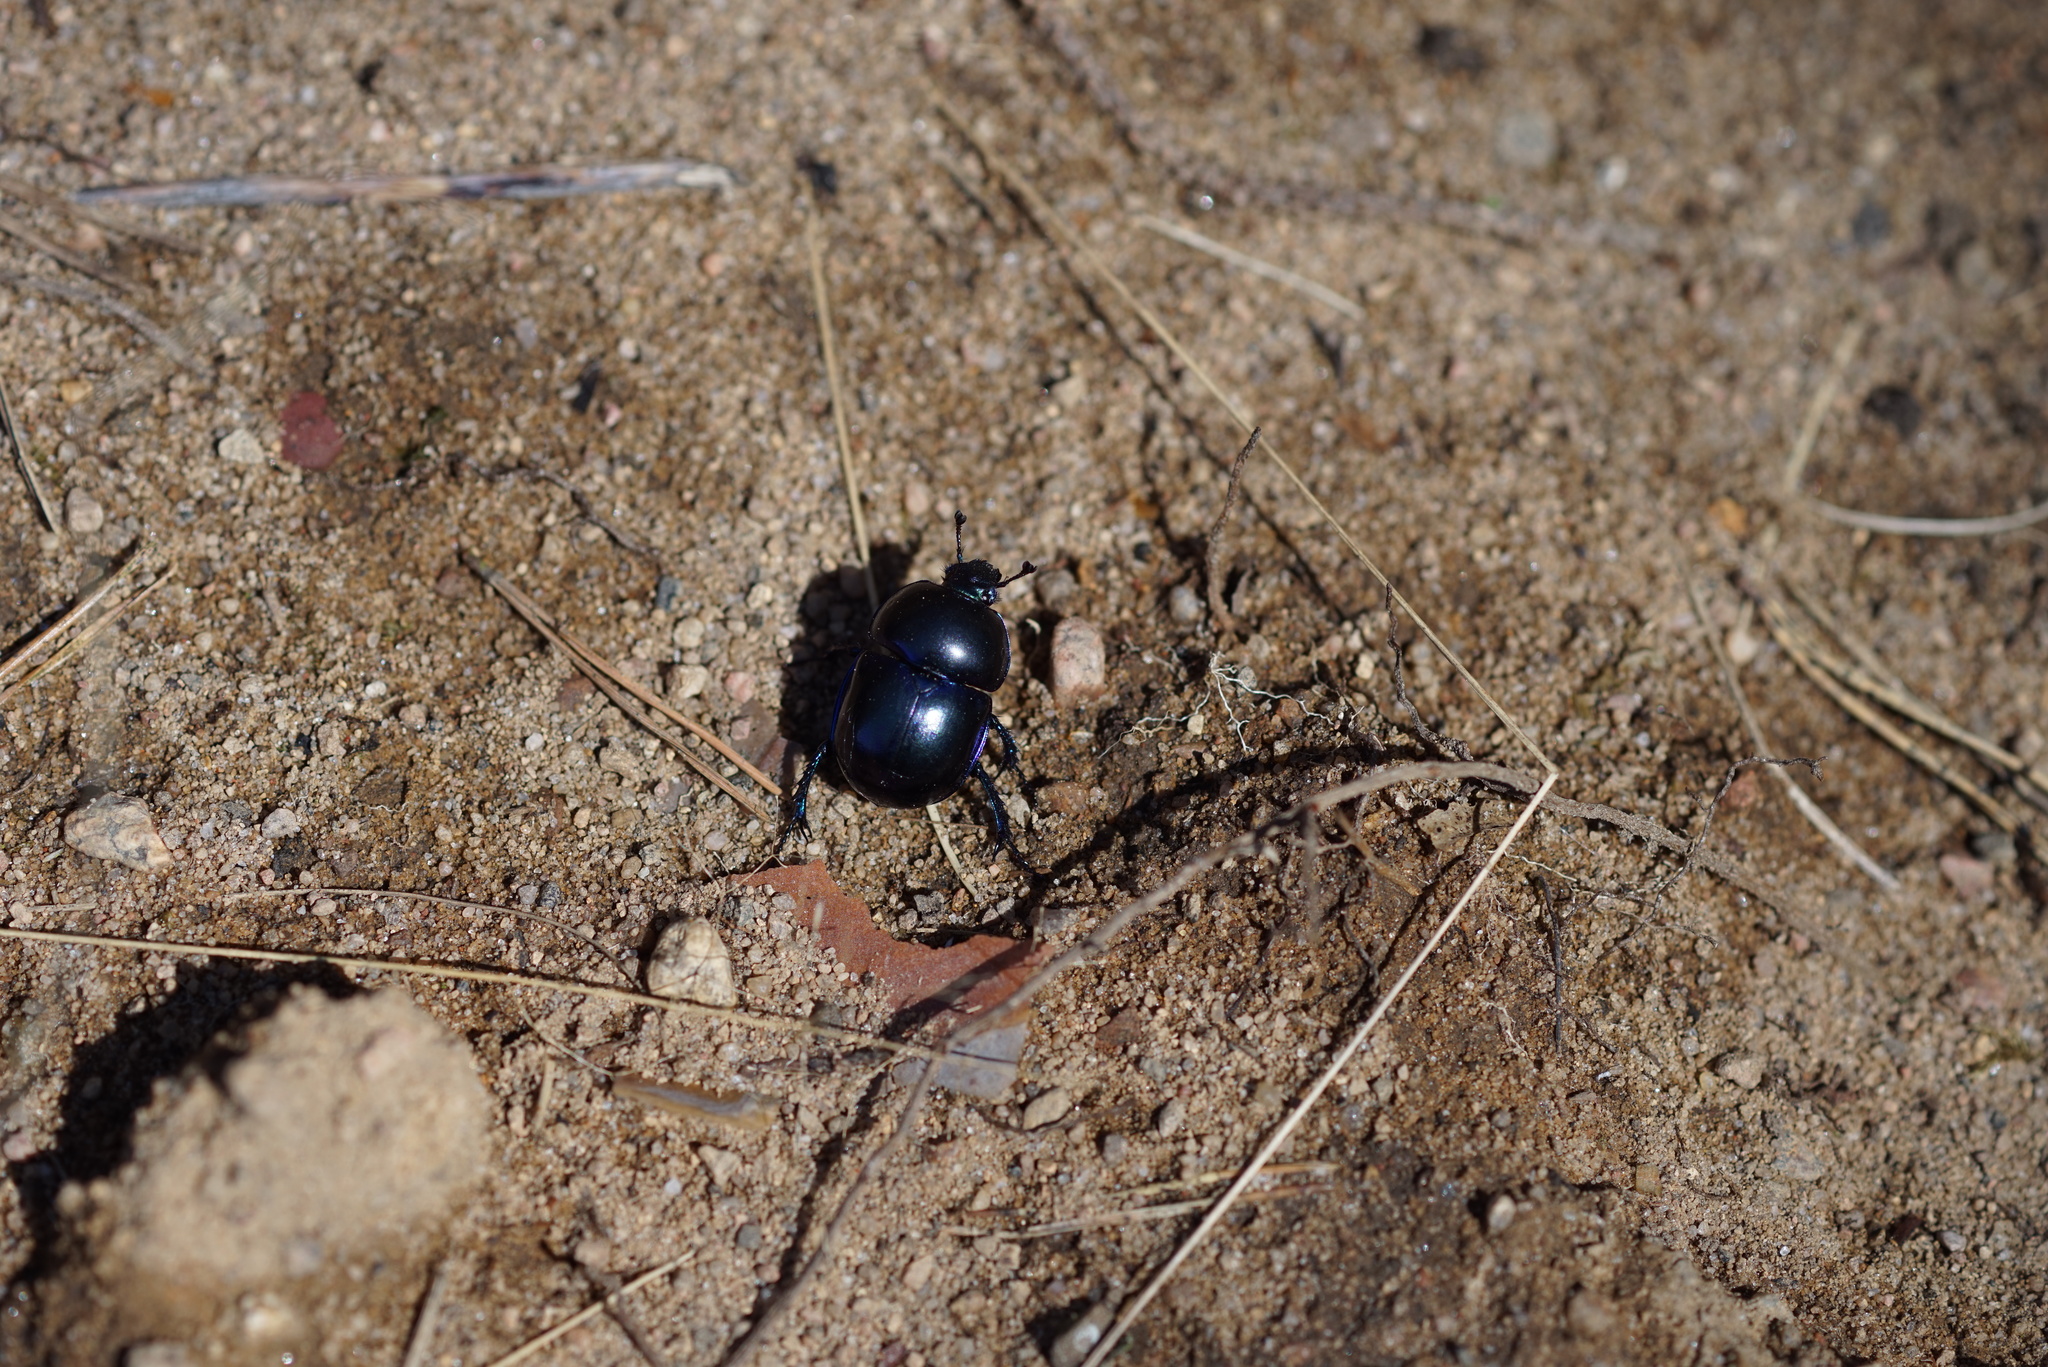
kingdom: Animalia
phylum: Arthropoda
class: Insecta
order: Coleoptera
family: Geotrupidae
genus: Trypocopris
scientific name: Trypocopris vernalis
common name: Spring dumbledor
